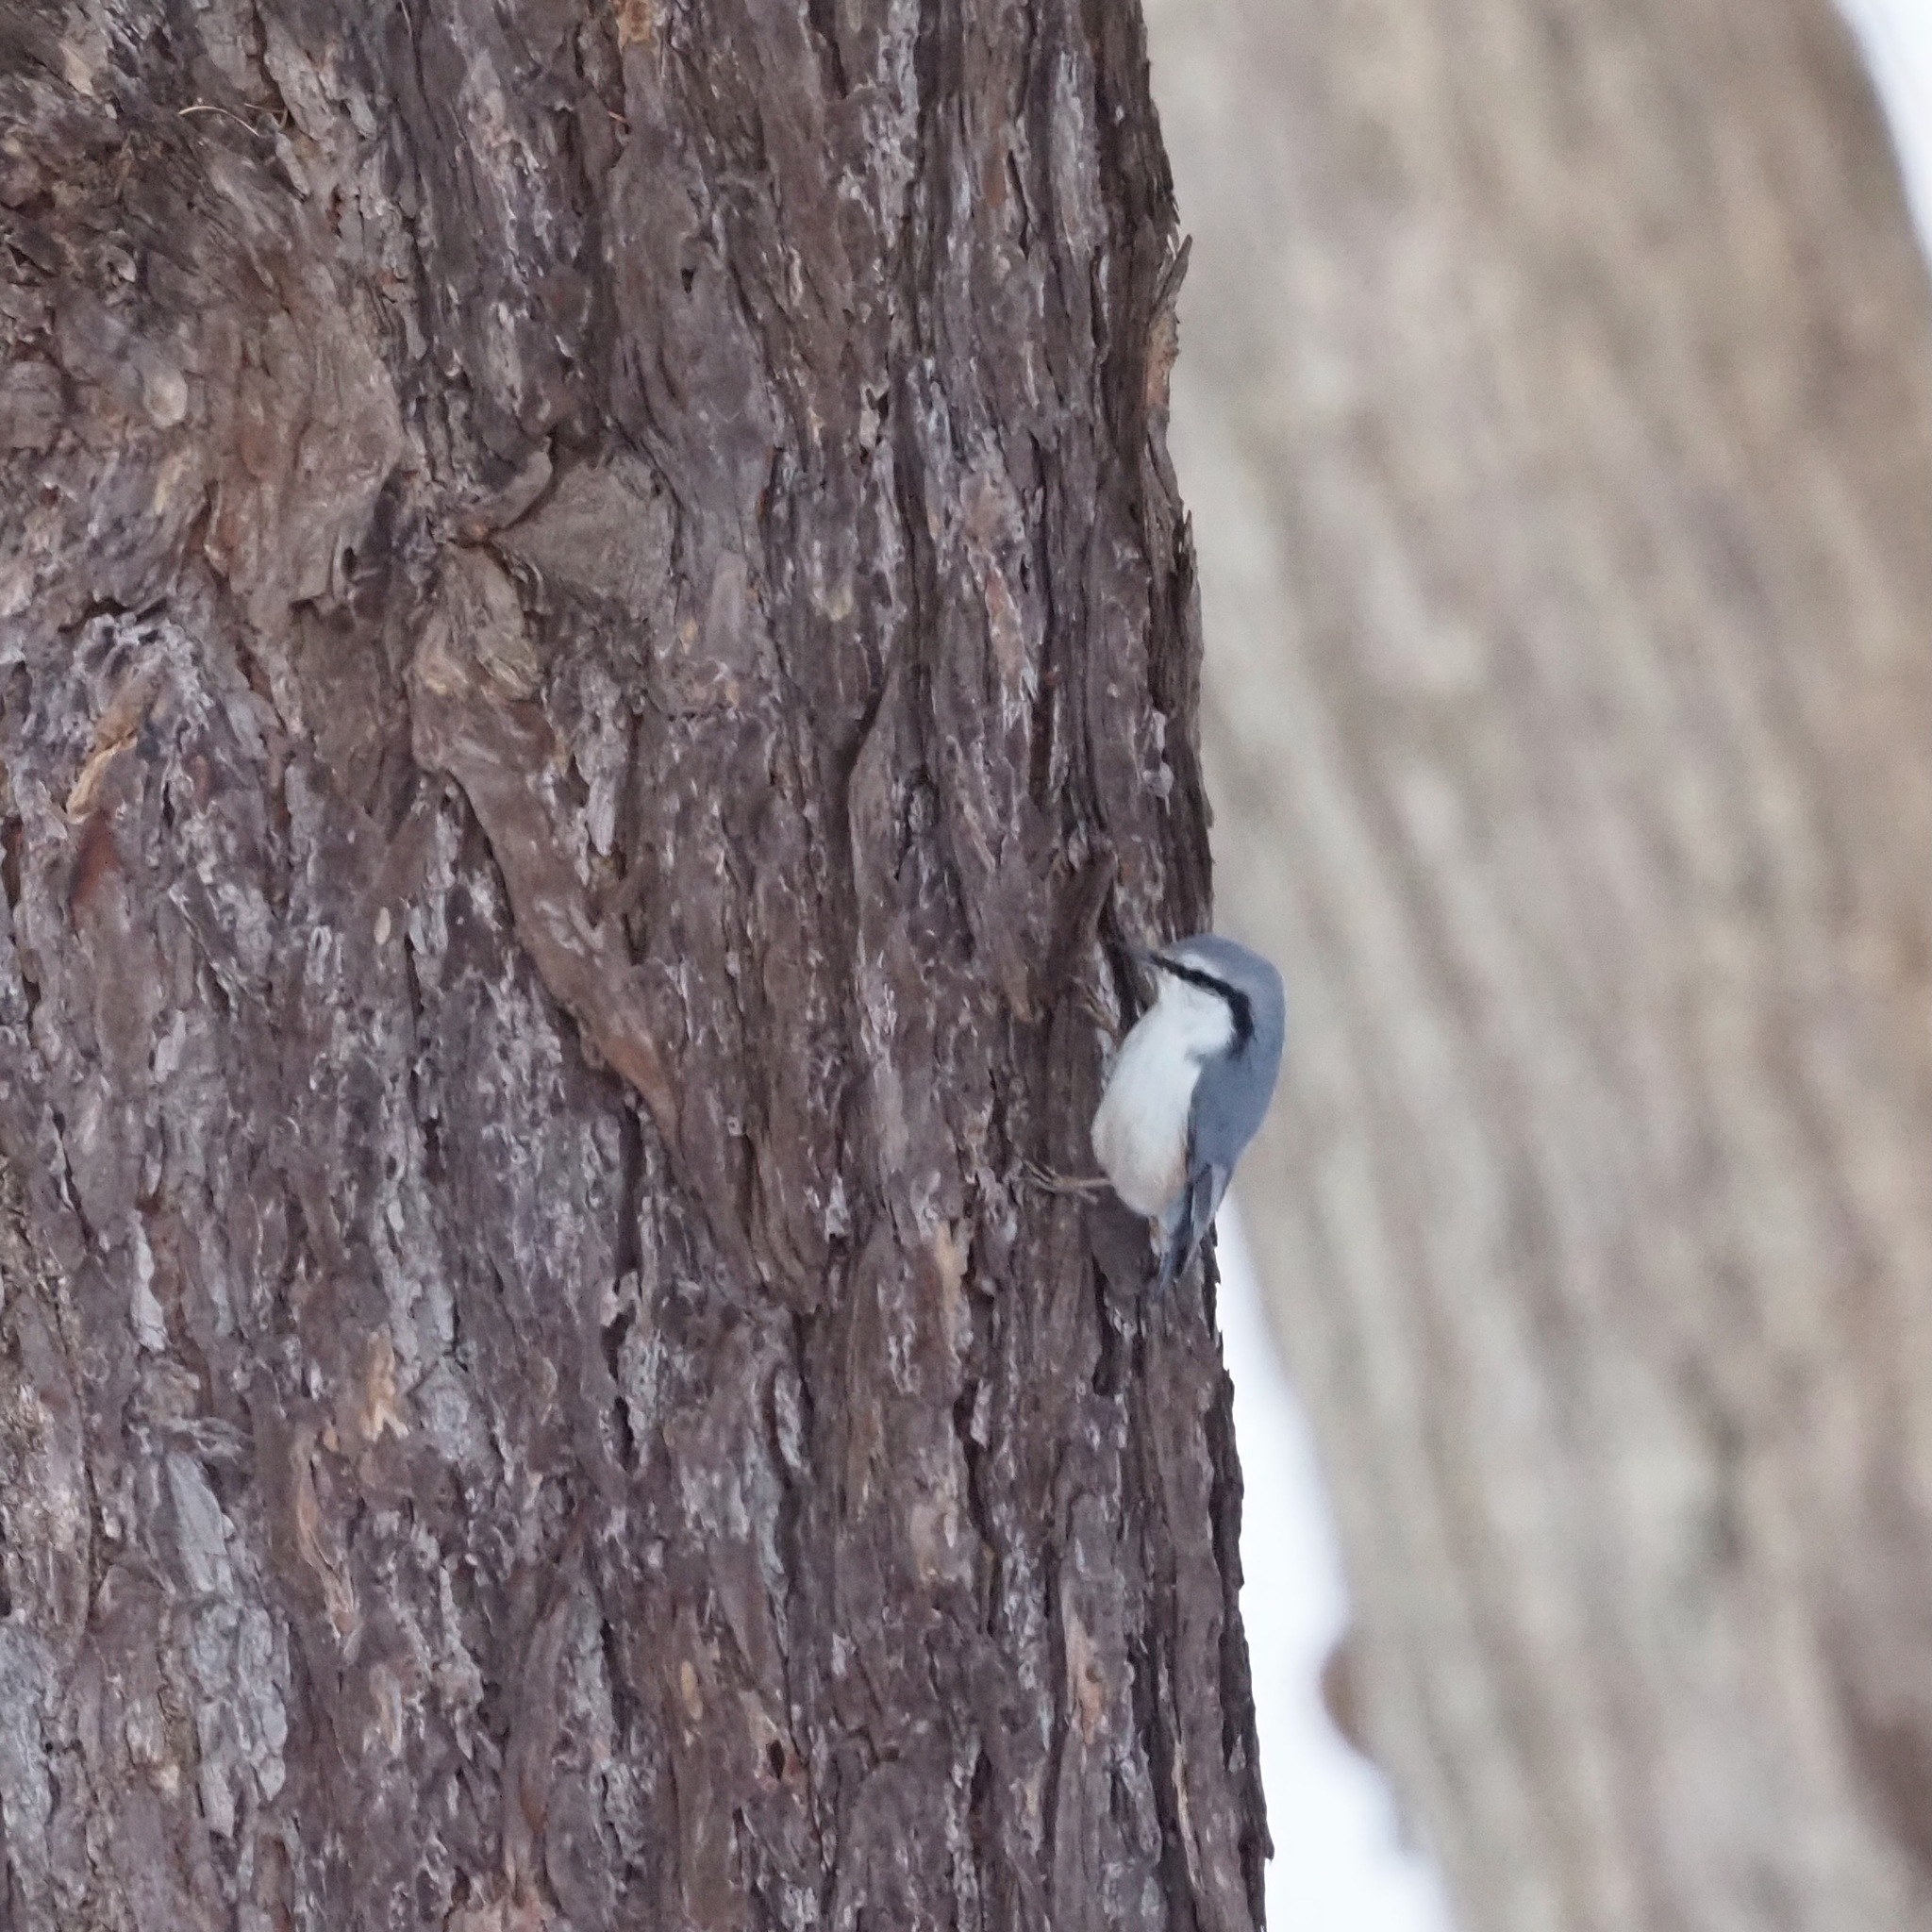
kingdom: Animalia
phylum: Chordata
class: Aves
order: Passeriformes
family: Sittidae
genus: Sitta
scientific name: Sitta europaea
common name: Eurasian nuthatch
